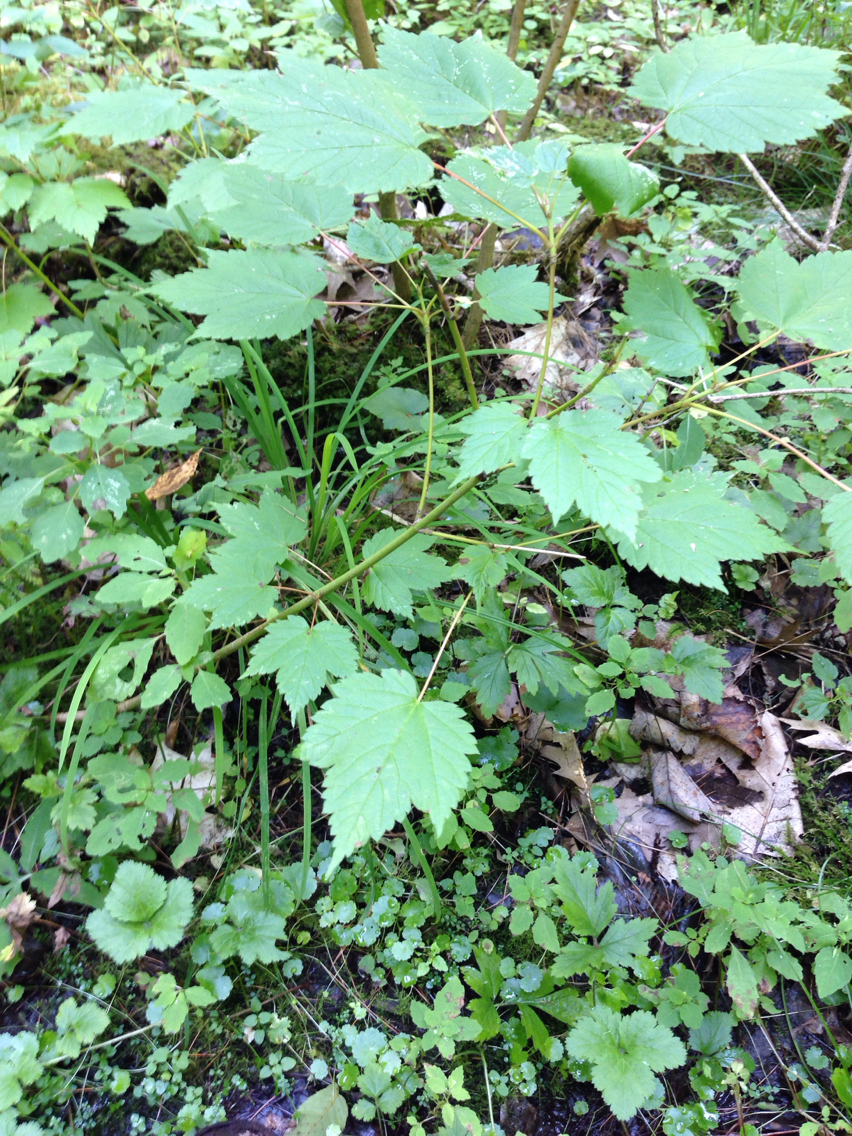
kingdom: Plantae
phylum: Tracheophyta
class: Magnoliopsida
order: Sapindales
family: Sapindaceae
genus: Acer
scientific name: Acer spicatum
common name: Mountain maple
